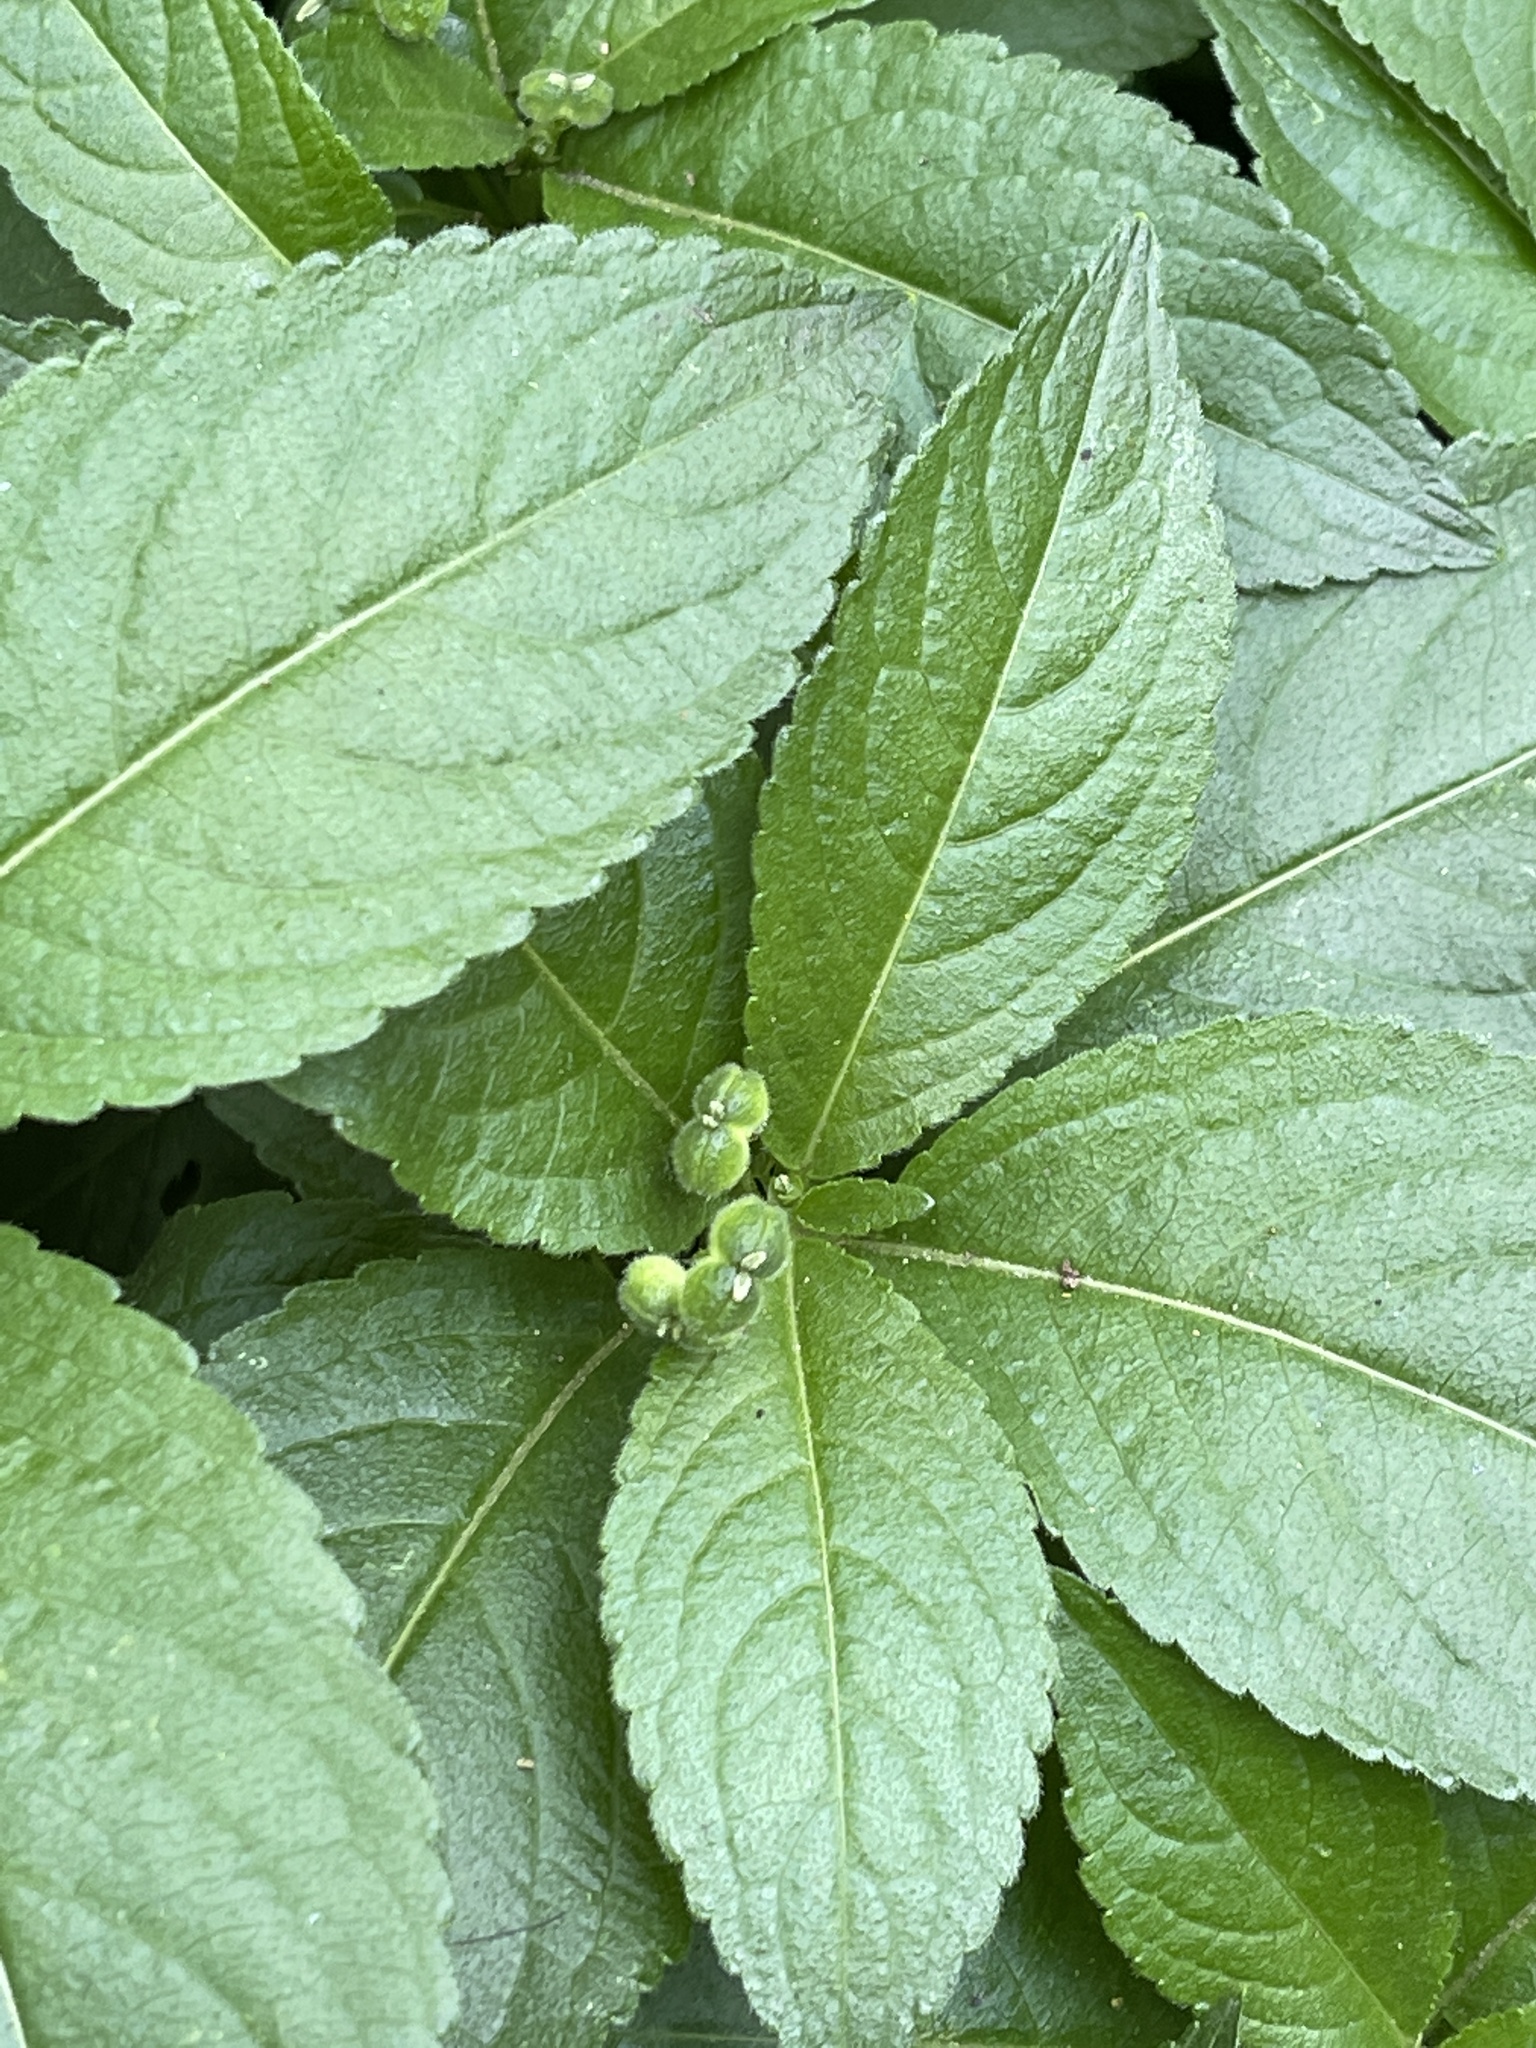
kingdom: Plantae
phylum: Tracheophyta
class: Magnoliopsida
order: Malpighiales
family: Euphorbiaceae
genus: Mercurialis
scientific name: Mercurialis perennis
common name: Dog mercury
